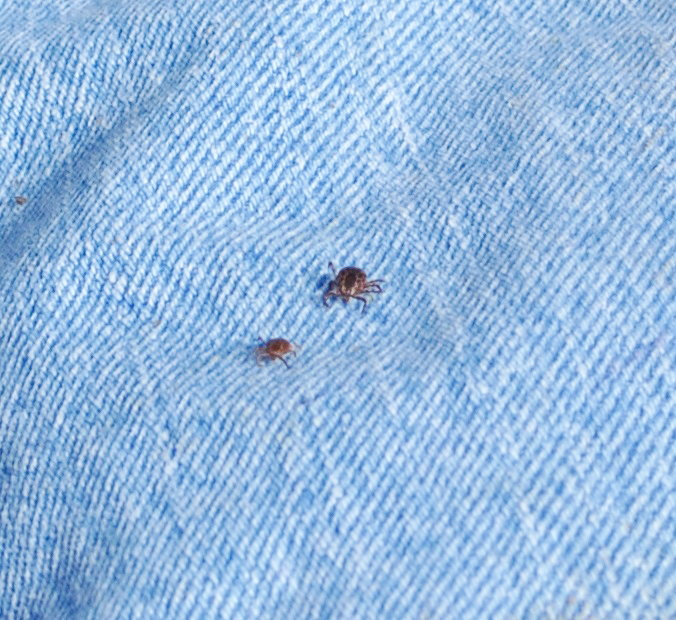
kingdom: Animalia
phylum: Arthropoda
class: Arachnida
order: Ixodida
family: Ixodidae
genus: Dermacentor
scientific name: Dermacentor variabilis
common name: American dog tick
